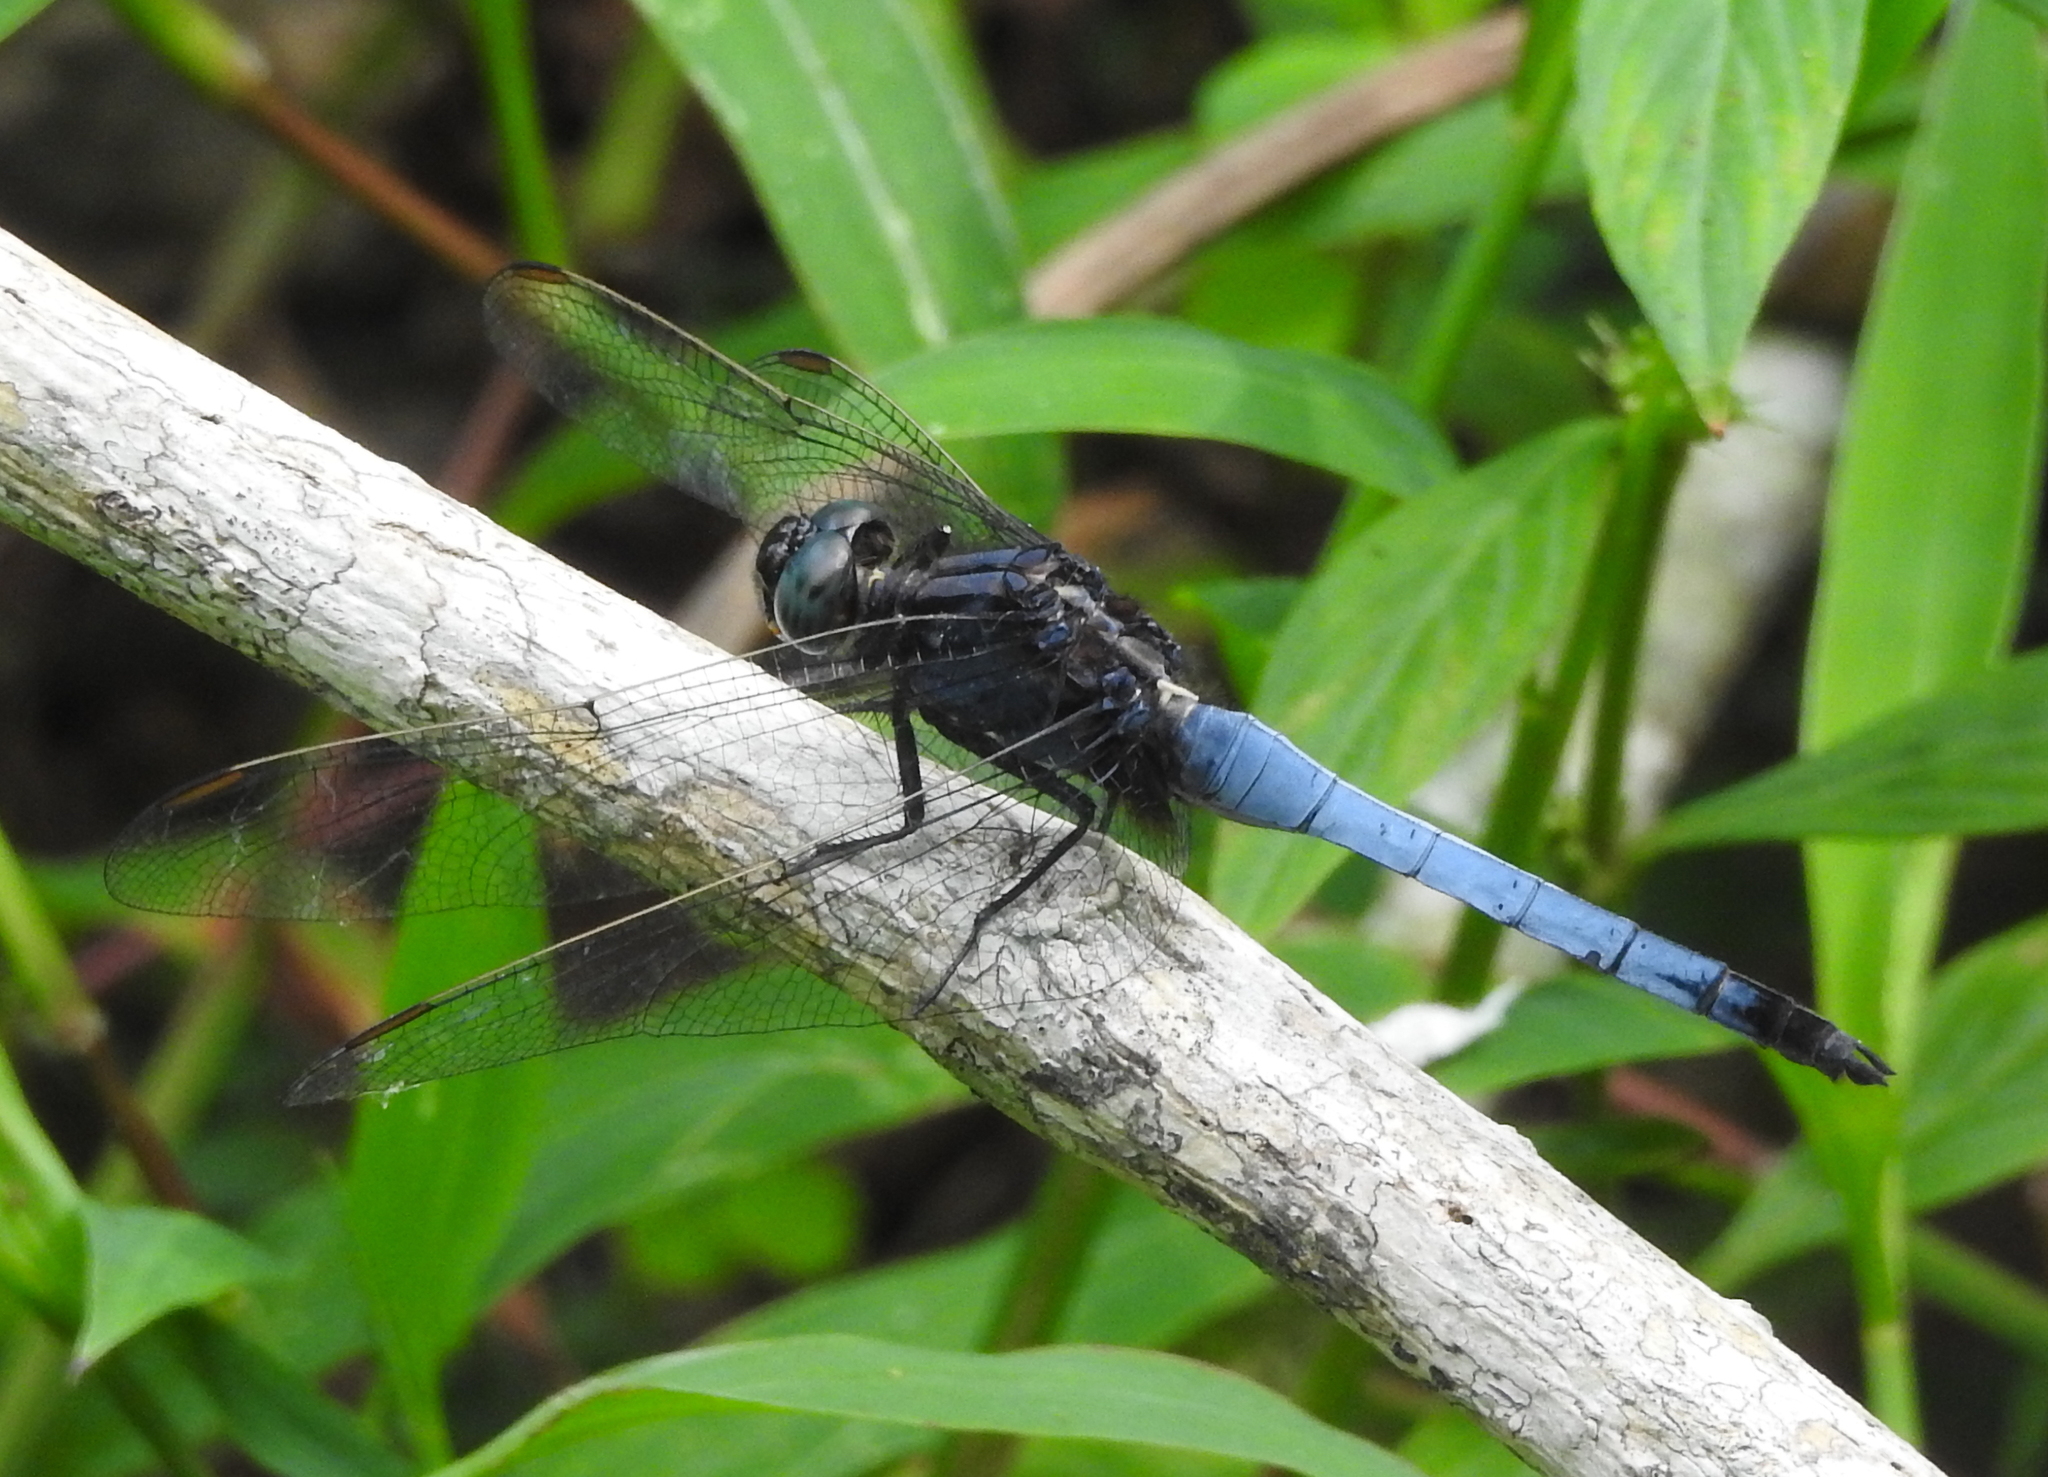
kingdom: Animalia
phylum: Arthropoda
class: Insecta
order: Odonata
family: Libellulidae
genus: Orthetrum
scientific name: Orthetrum glaucum
